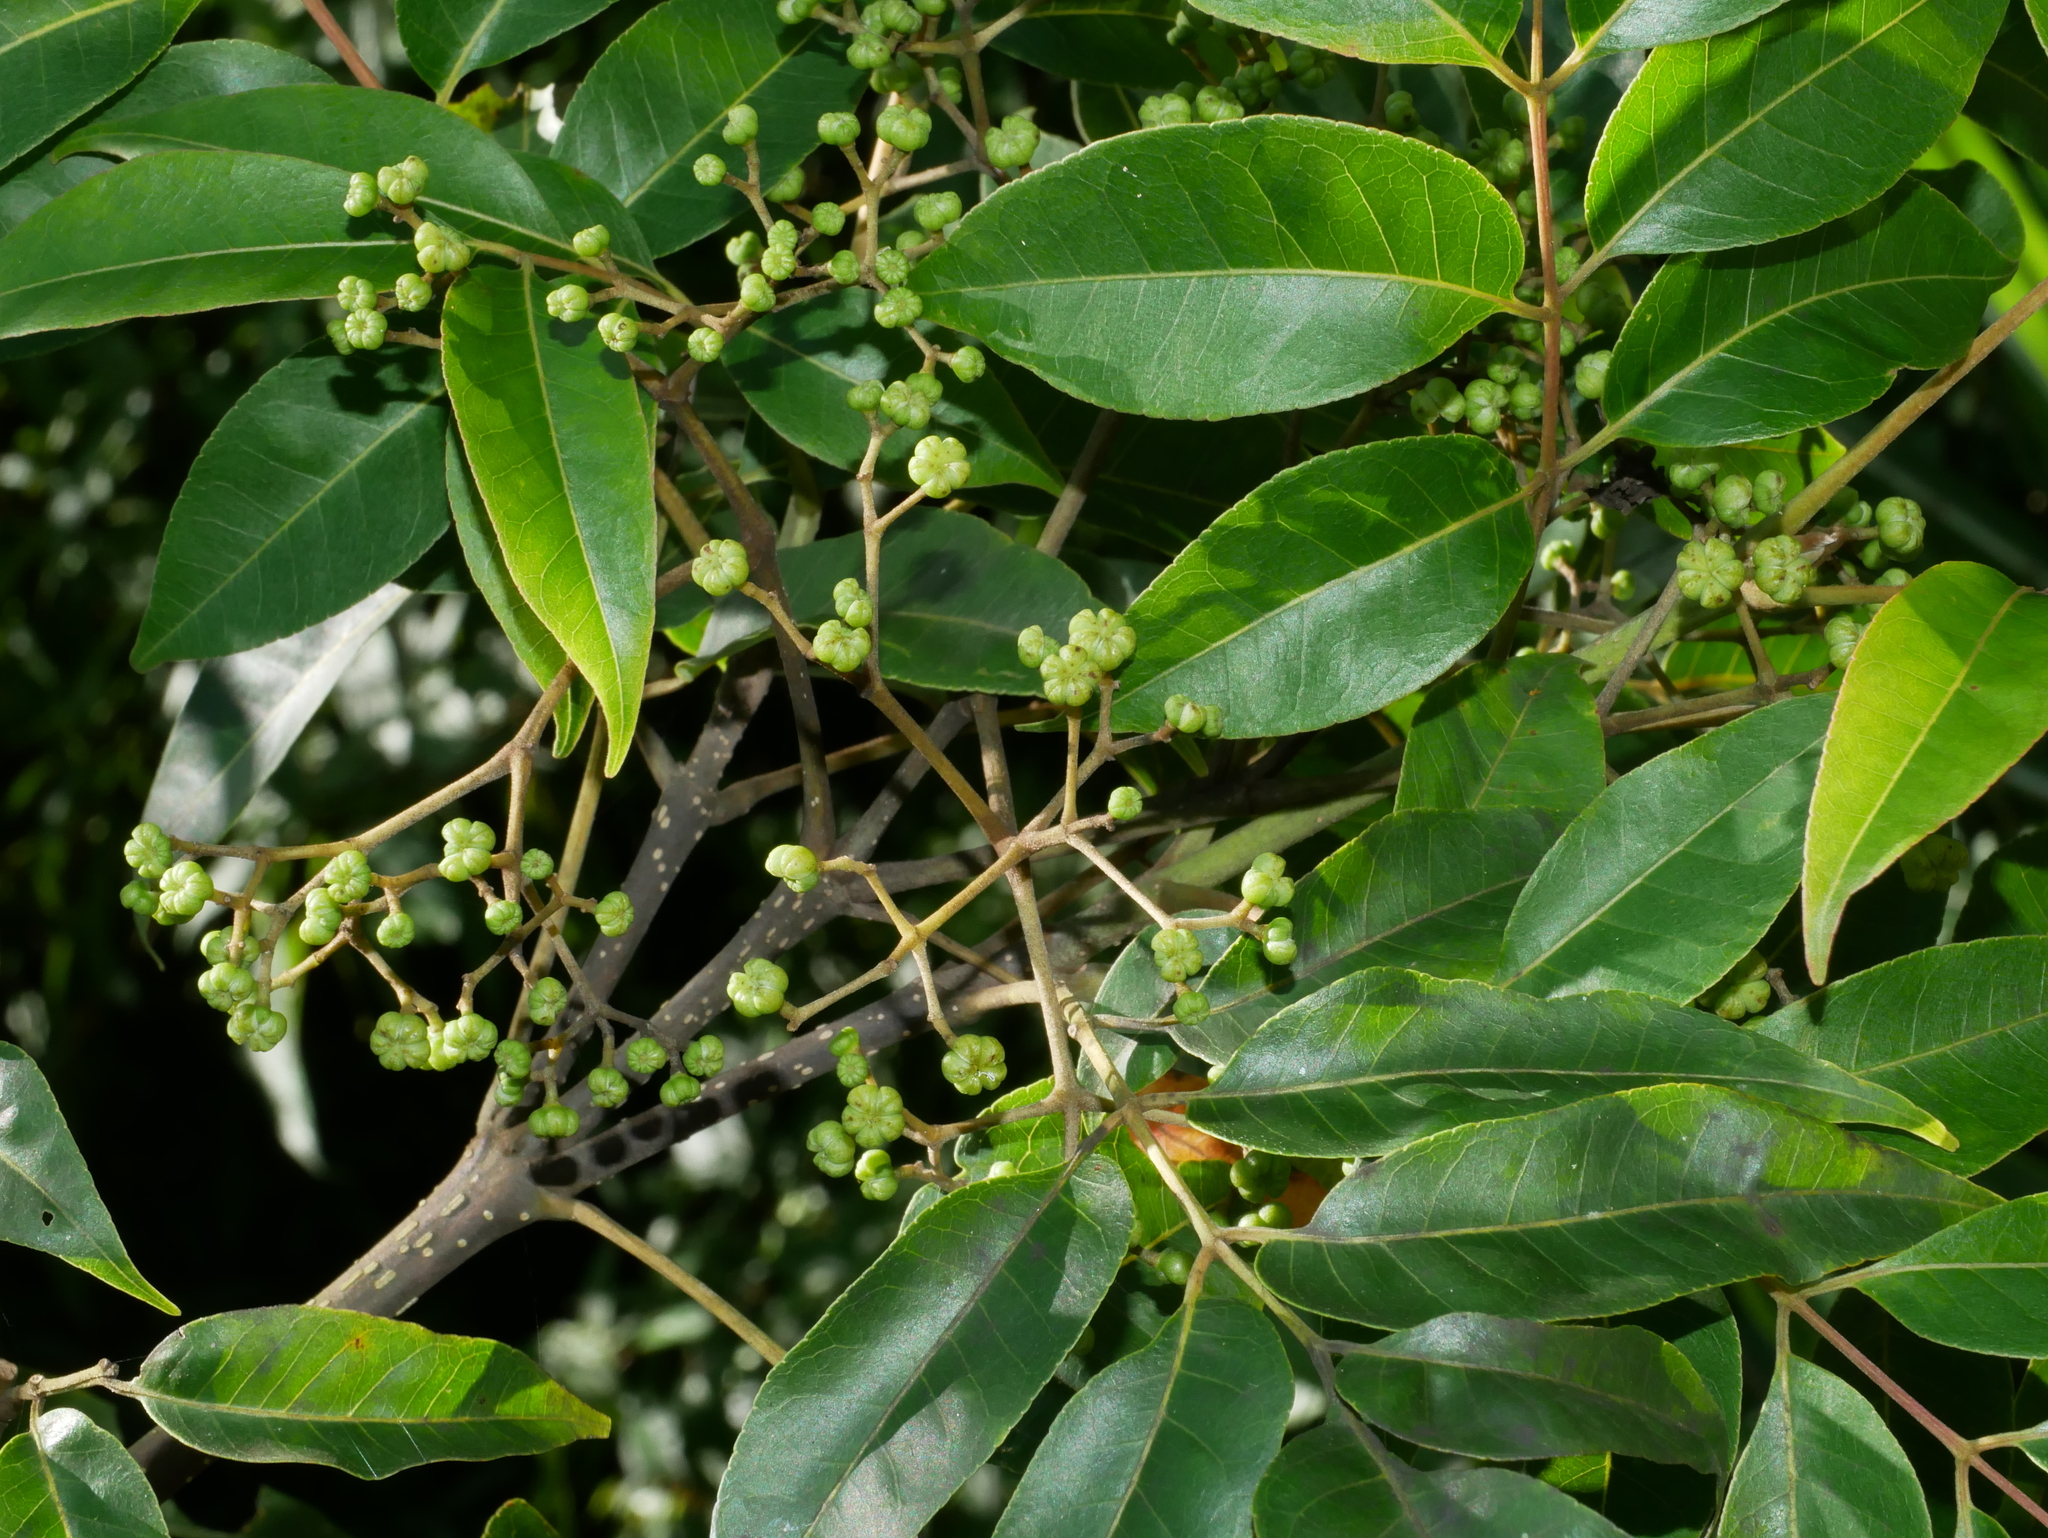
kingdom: Plantae
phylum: Tracheophyta
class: Magnoliopsida
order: Sapindales
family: Rutaceae
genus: Tetradium
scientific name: Tetradium glabrifolium
